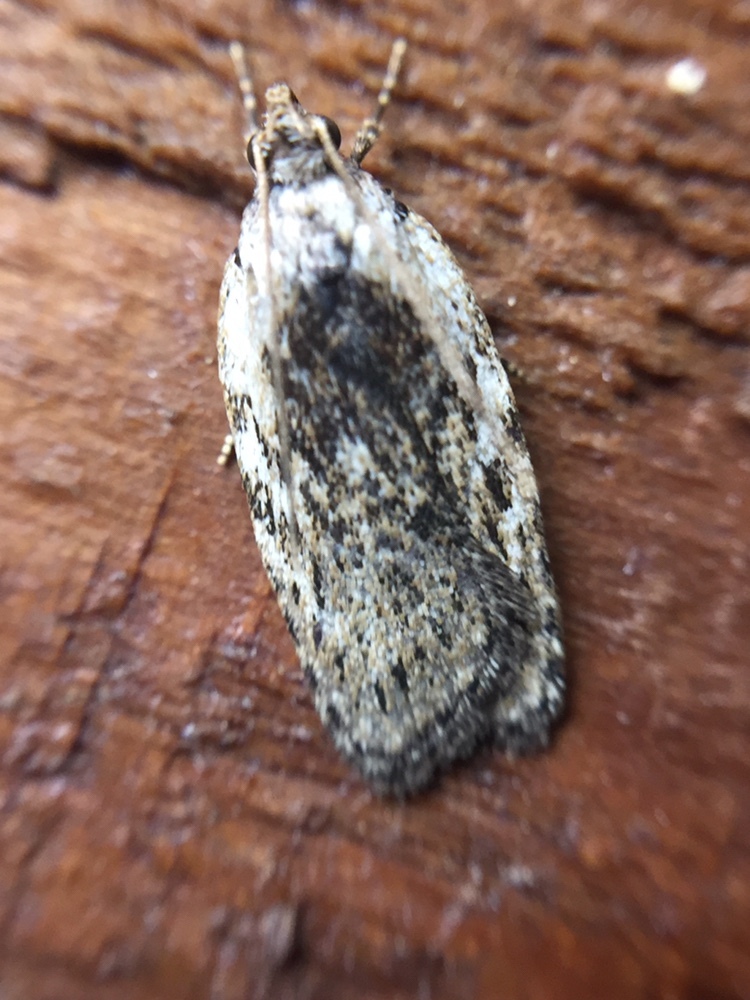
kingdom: Animalia
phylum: Arthropoda
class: Insecta
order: Lepidoptera
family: Depressariidae
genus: Phaeosaces
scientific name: Phaeosaces compsotypa
